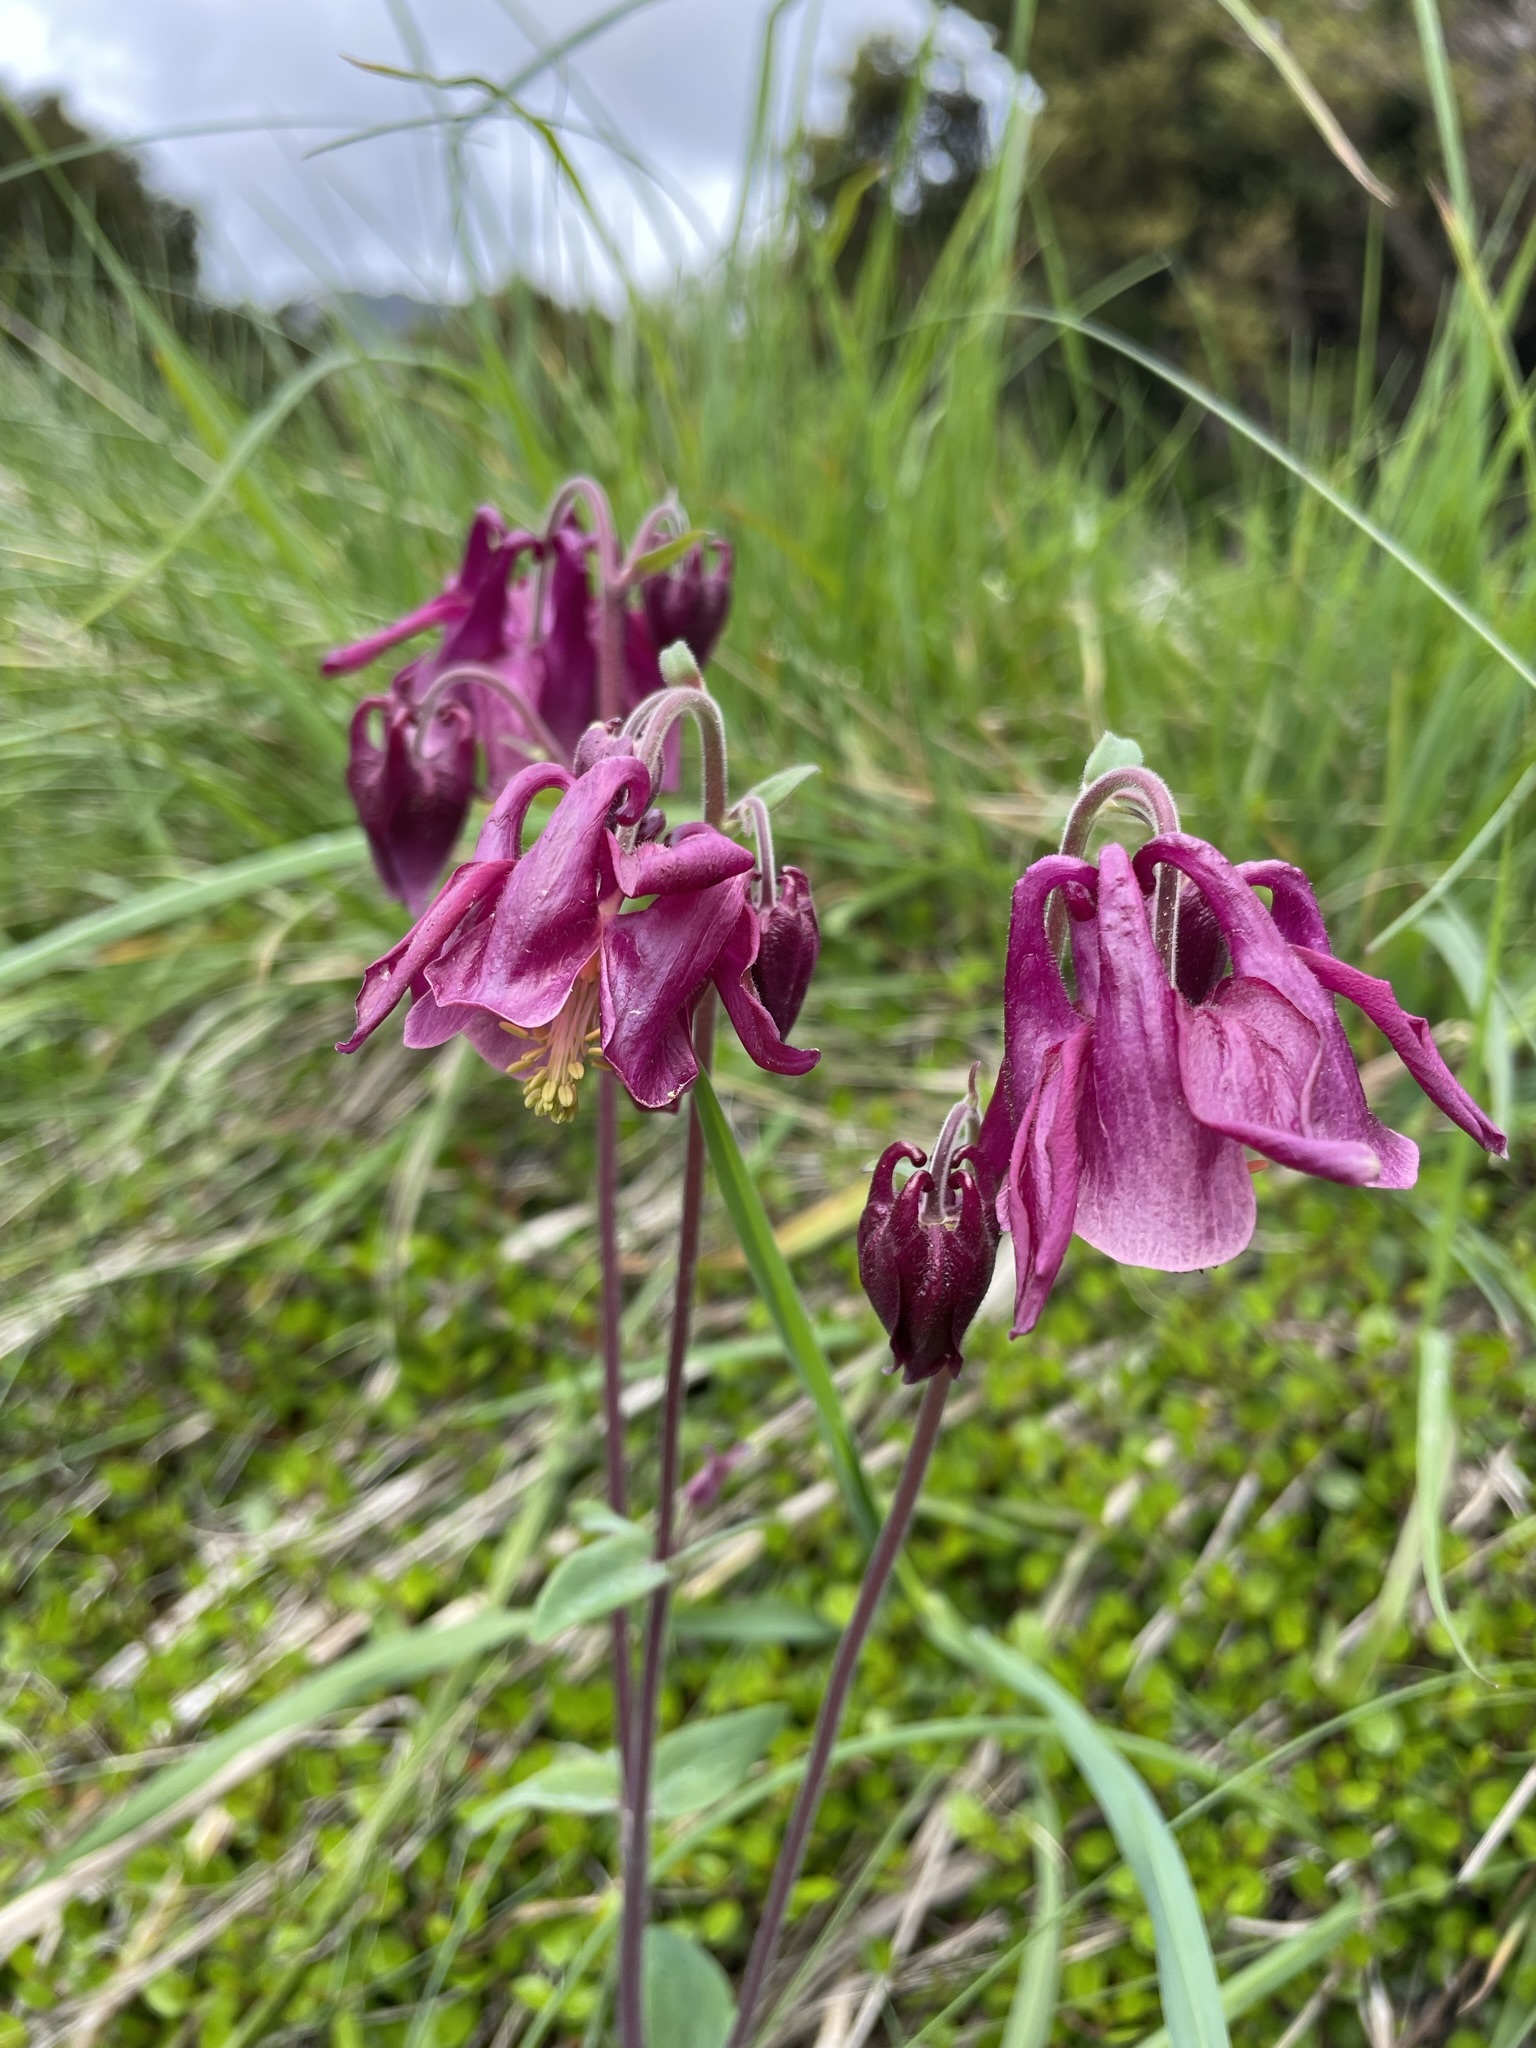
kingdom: Plantae
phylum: Tracheophyta
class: Magnoliopsida
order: Ranunculales
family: Ranunculaceae
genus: Aquilegia
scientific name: Aquilegia vulgaris
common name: Columbine
